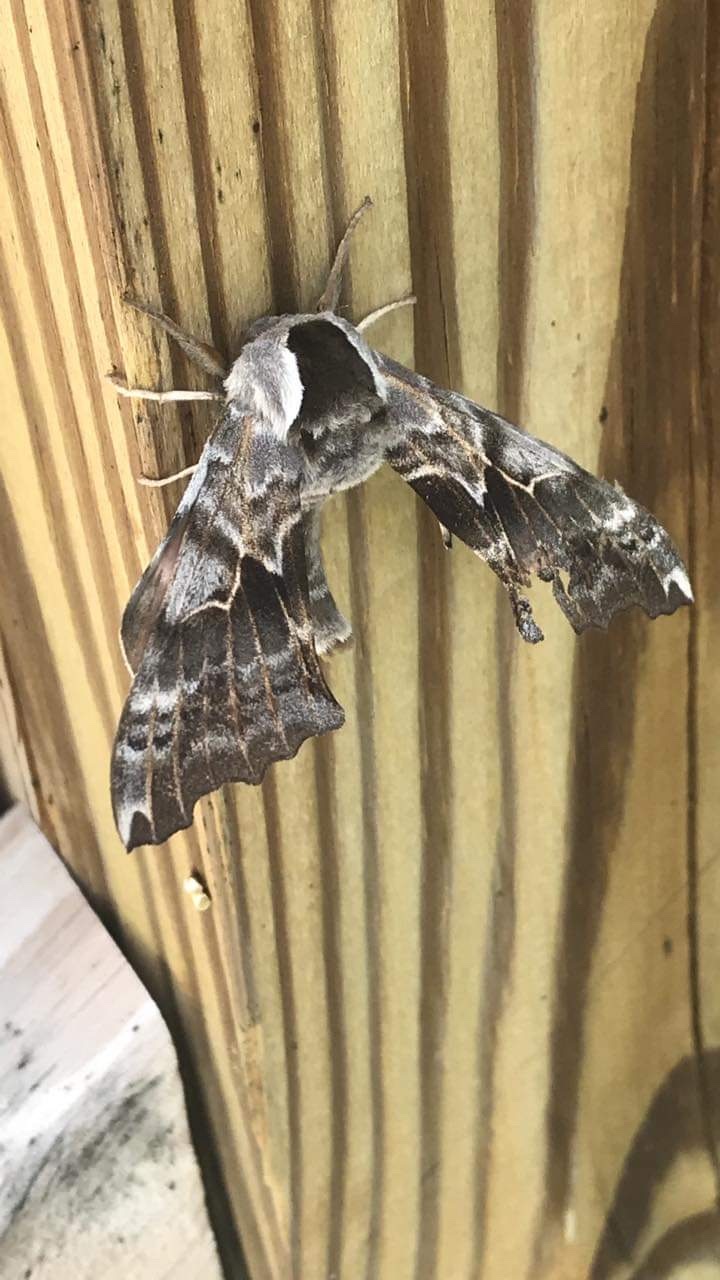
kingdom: Animalia
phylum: Arthropoda
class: Insecta
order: Lepidoptera
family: Sphingidae
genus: Smerinthus
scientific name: Smerinthus cerisyi
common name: Cerisy's sphinx moth
